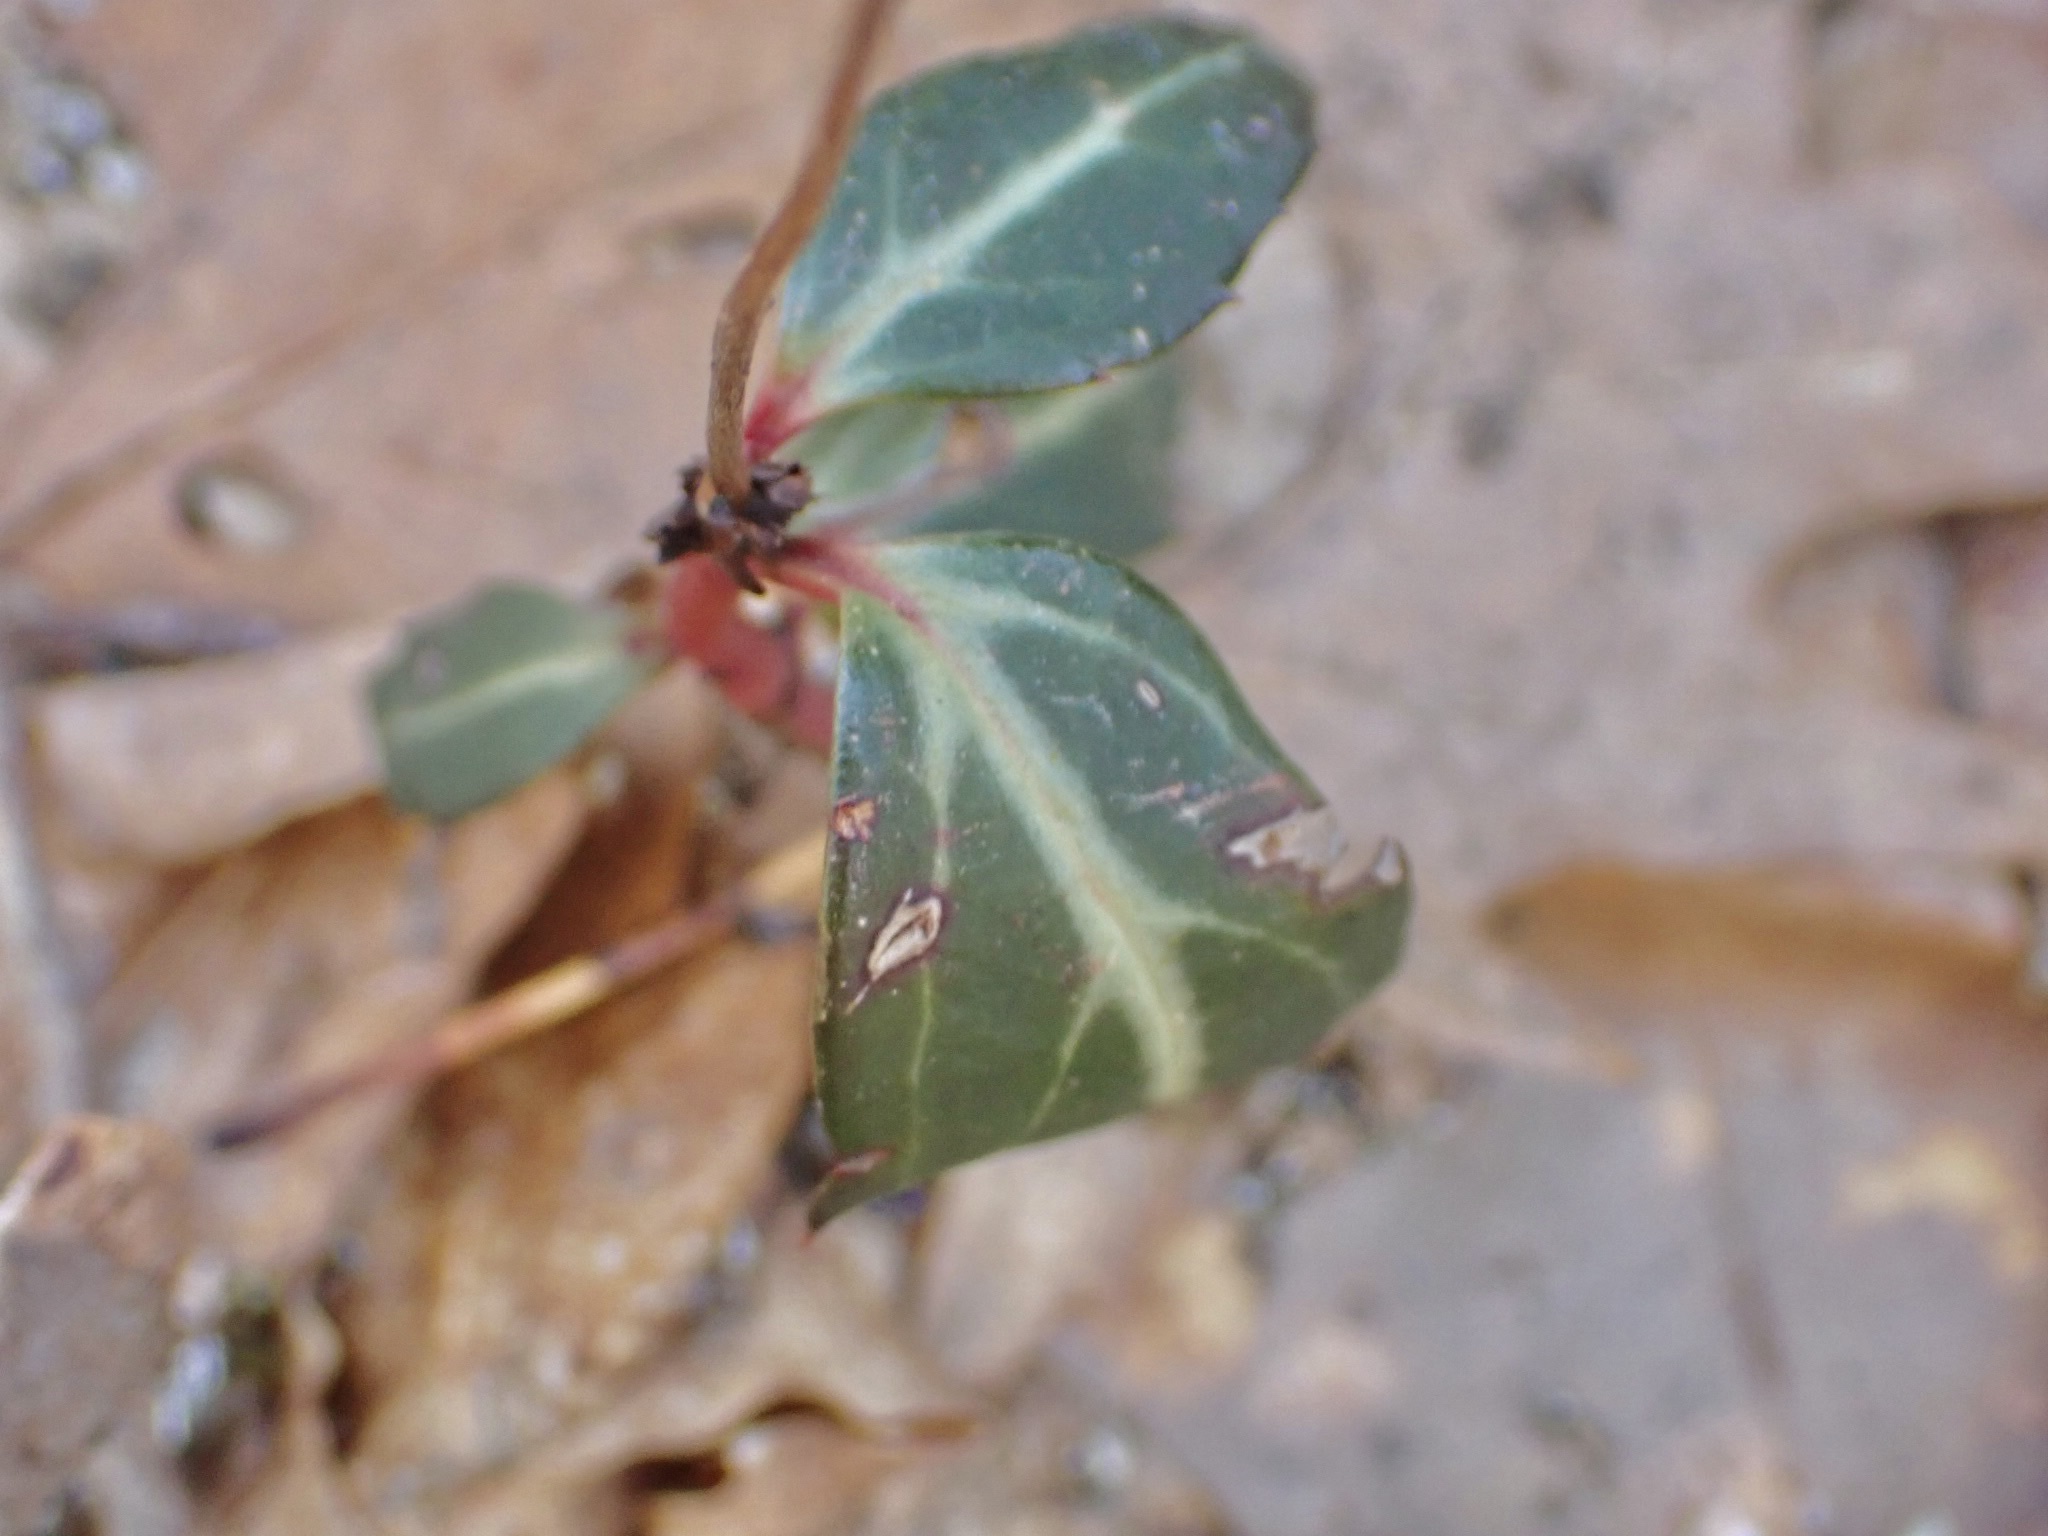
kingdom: Plantae
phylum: Tracheophyta
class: Magnoliopsida
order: Ericales
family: Ericaceae
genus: Chimaphila
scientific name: Chimaphila maculata
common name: Spotted pipsissewa
